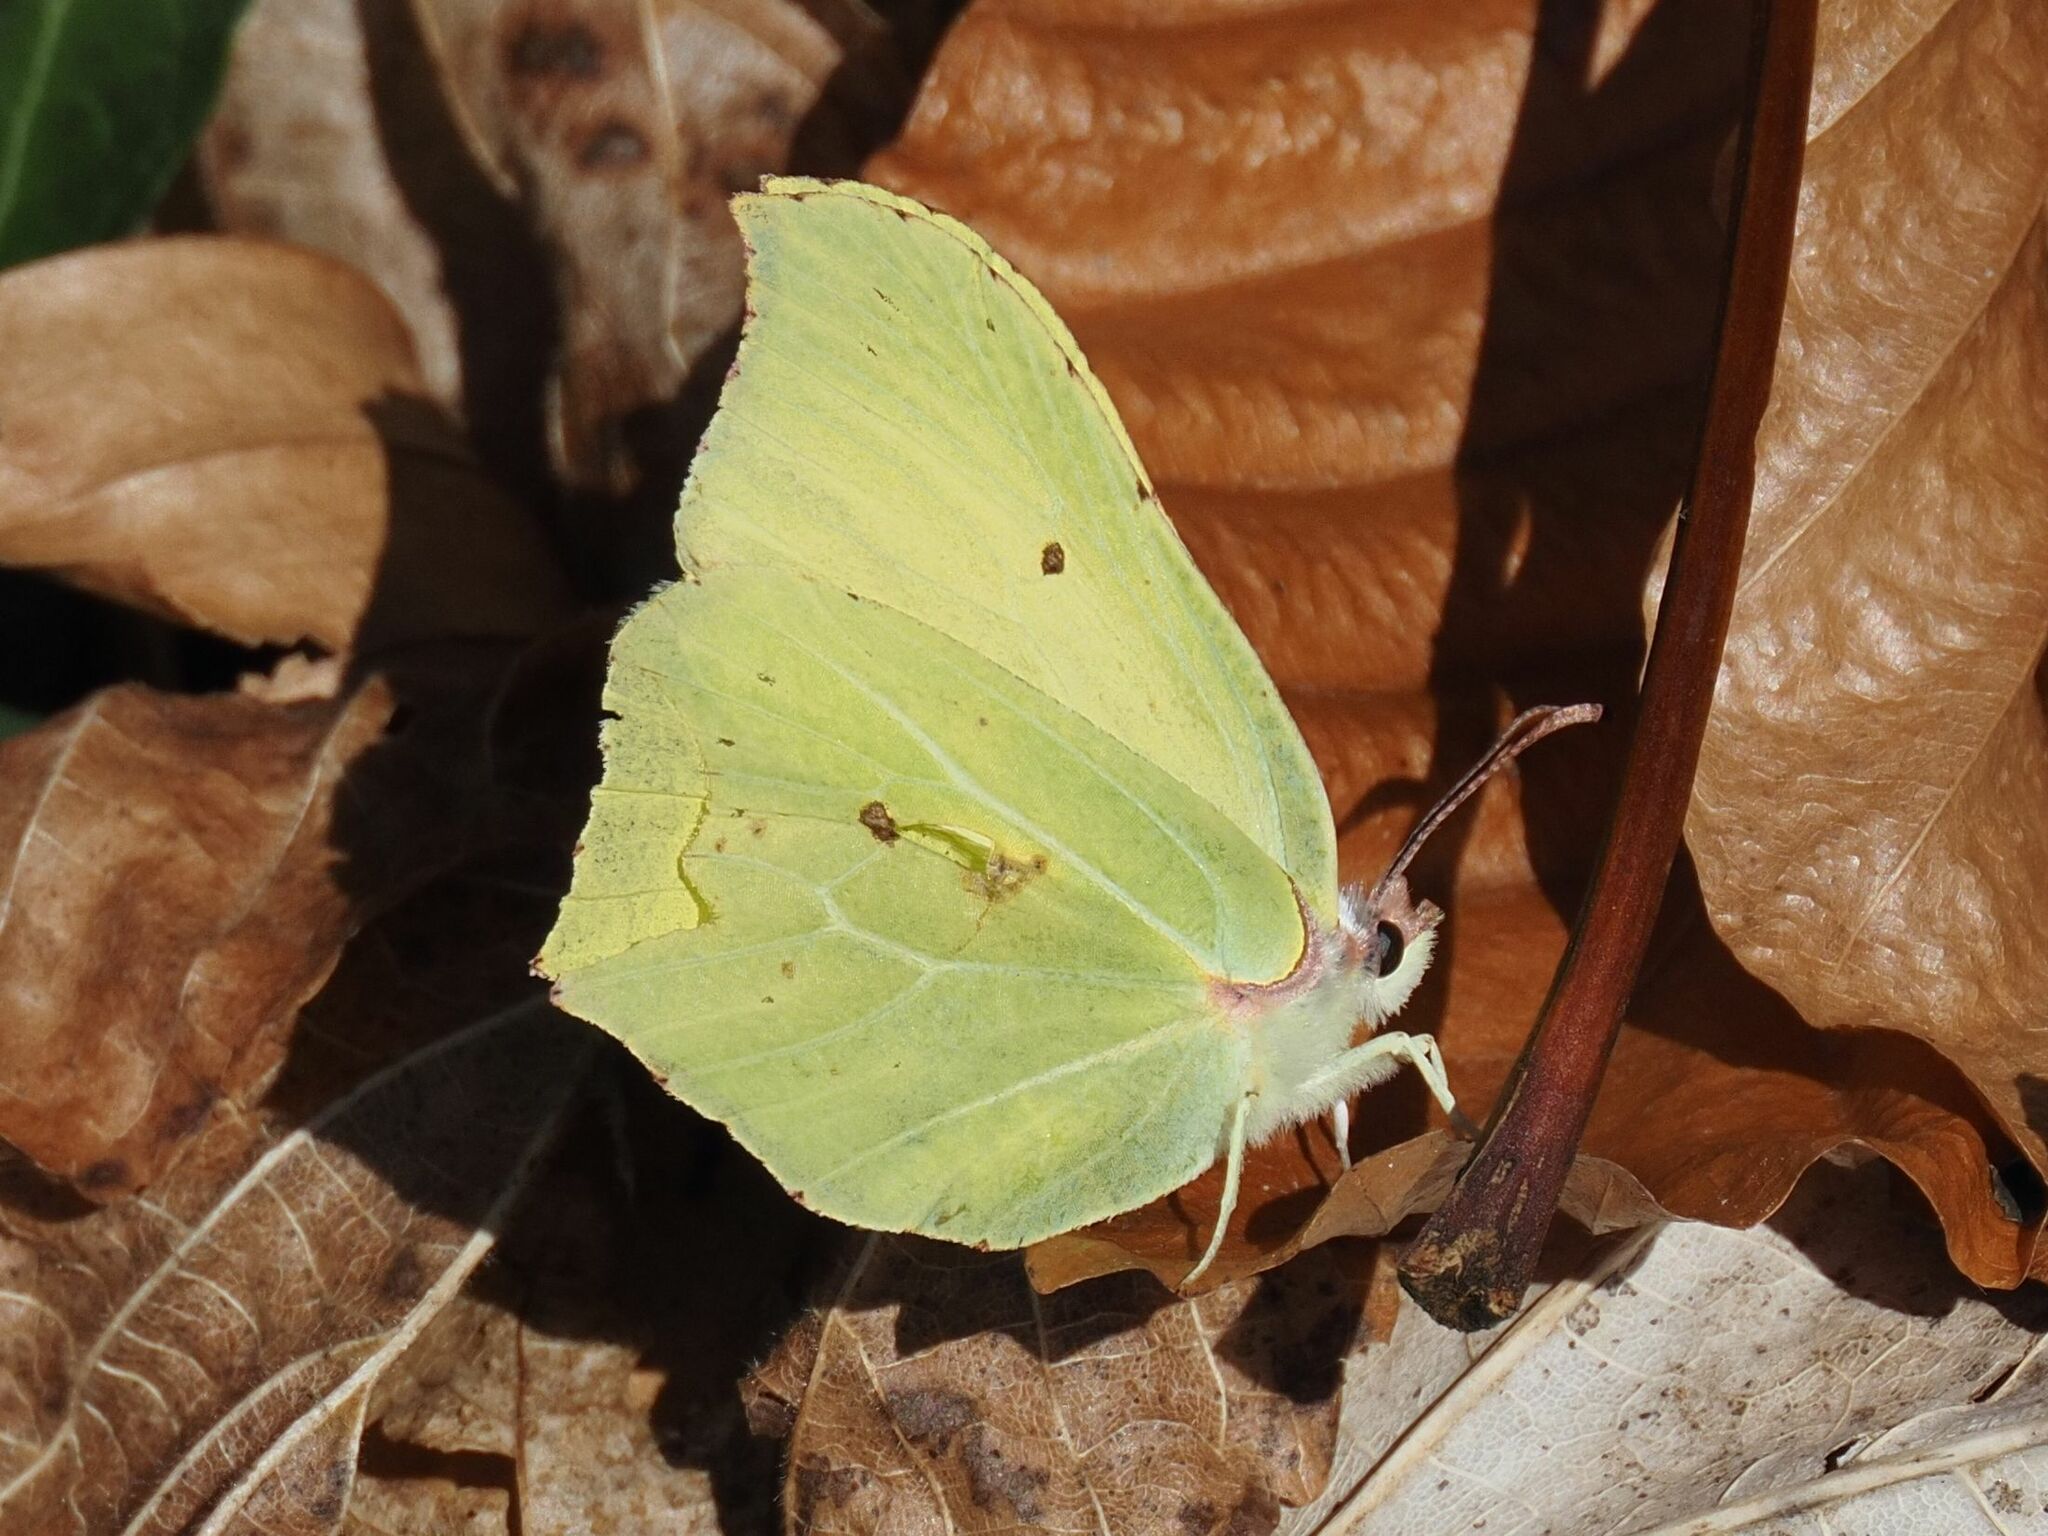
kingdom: Animalia
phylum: Arthropoda
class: Insecta
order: Lepidoptera
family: Pieridae
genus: Gonepteryx
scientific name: Gonepteryx rhamni
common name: Brimstone
